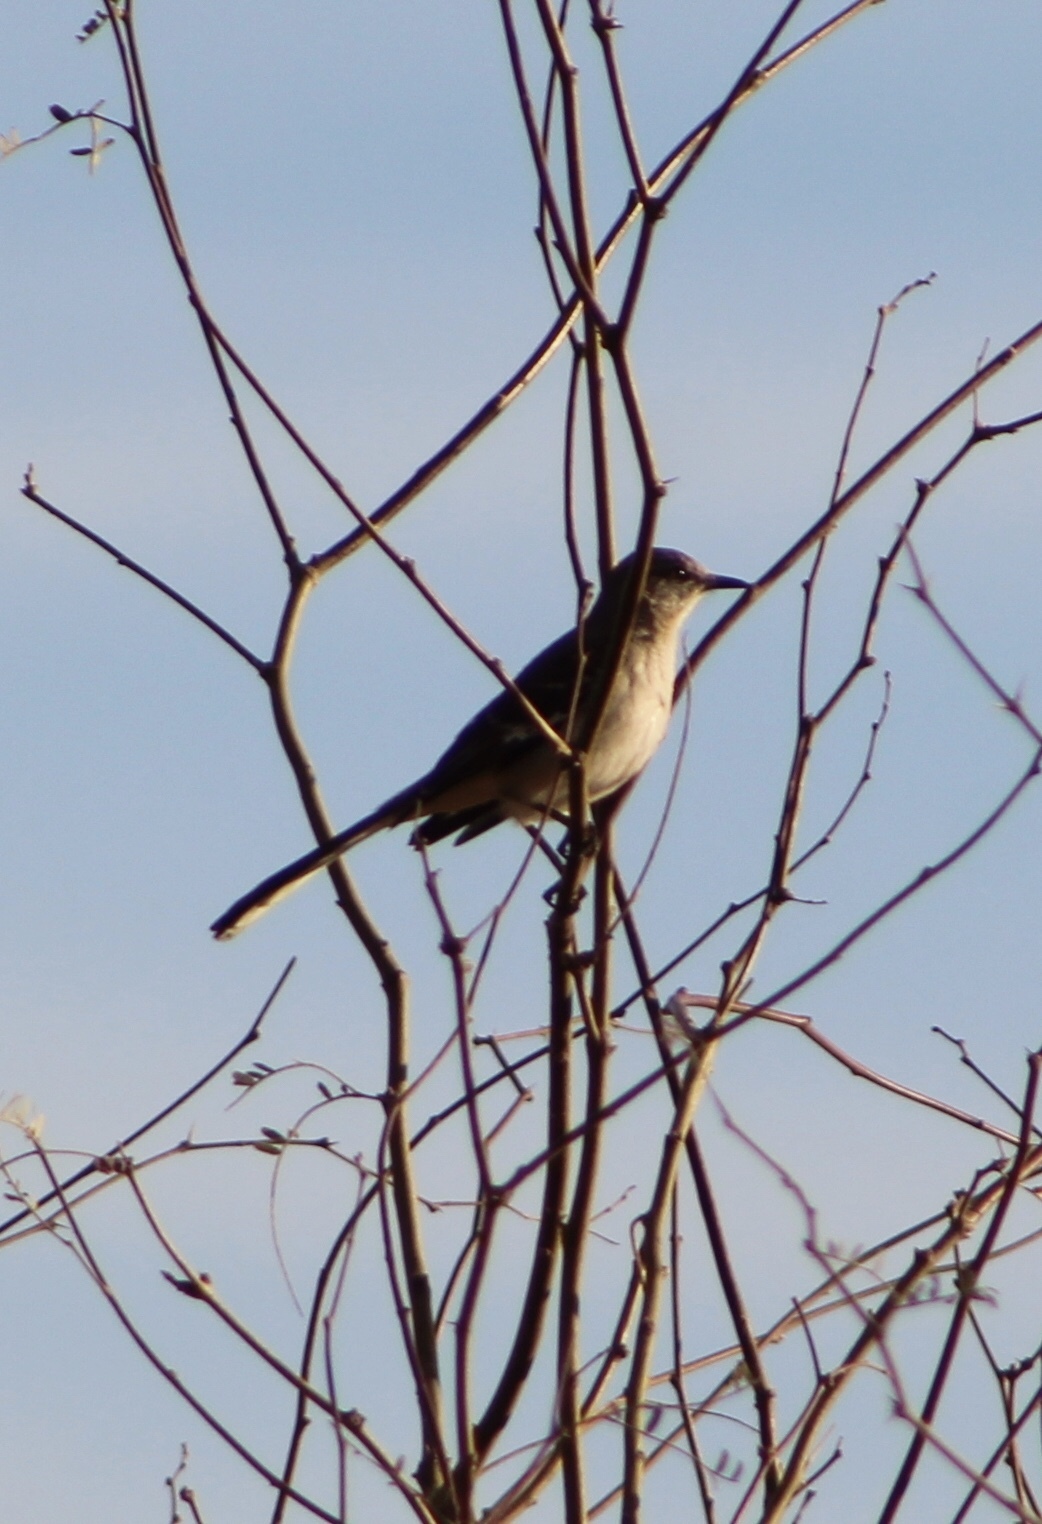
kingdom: Animalia
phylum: Chordata
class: Aves
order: Passeriformes
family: Mimidae
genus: Mimus
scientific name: Mimus polyglottos
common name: Northern mockingbird
